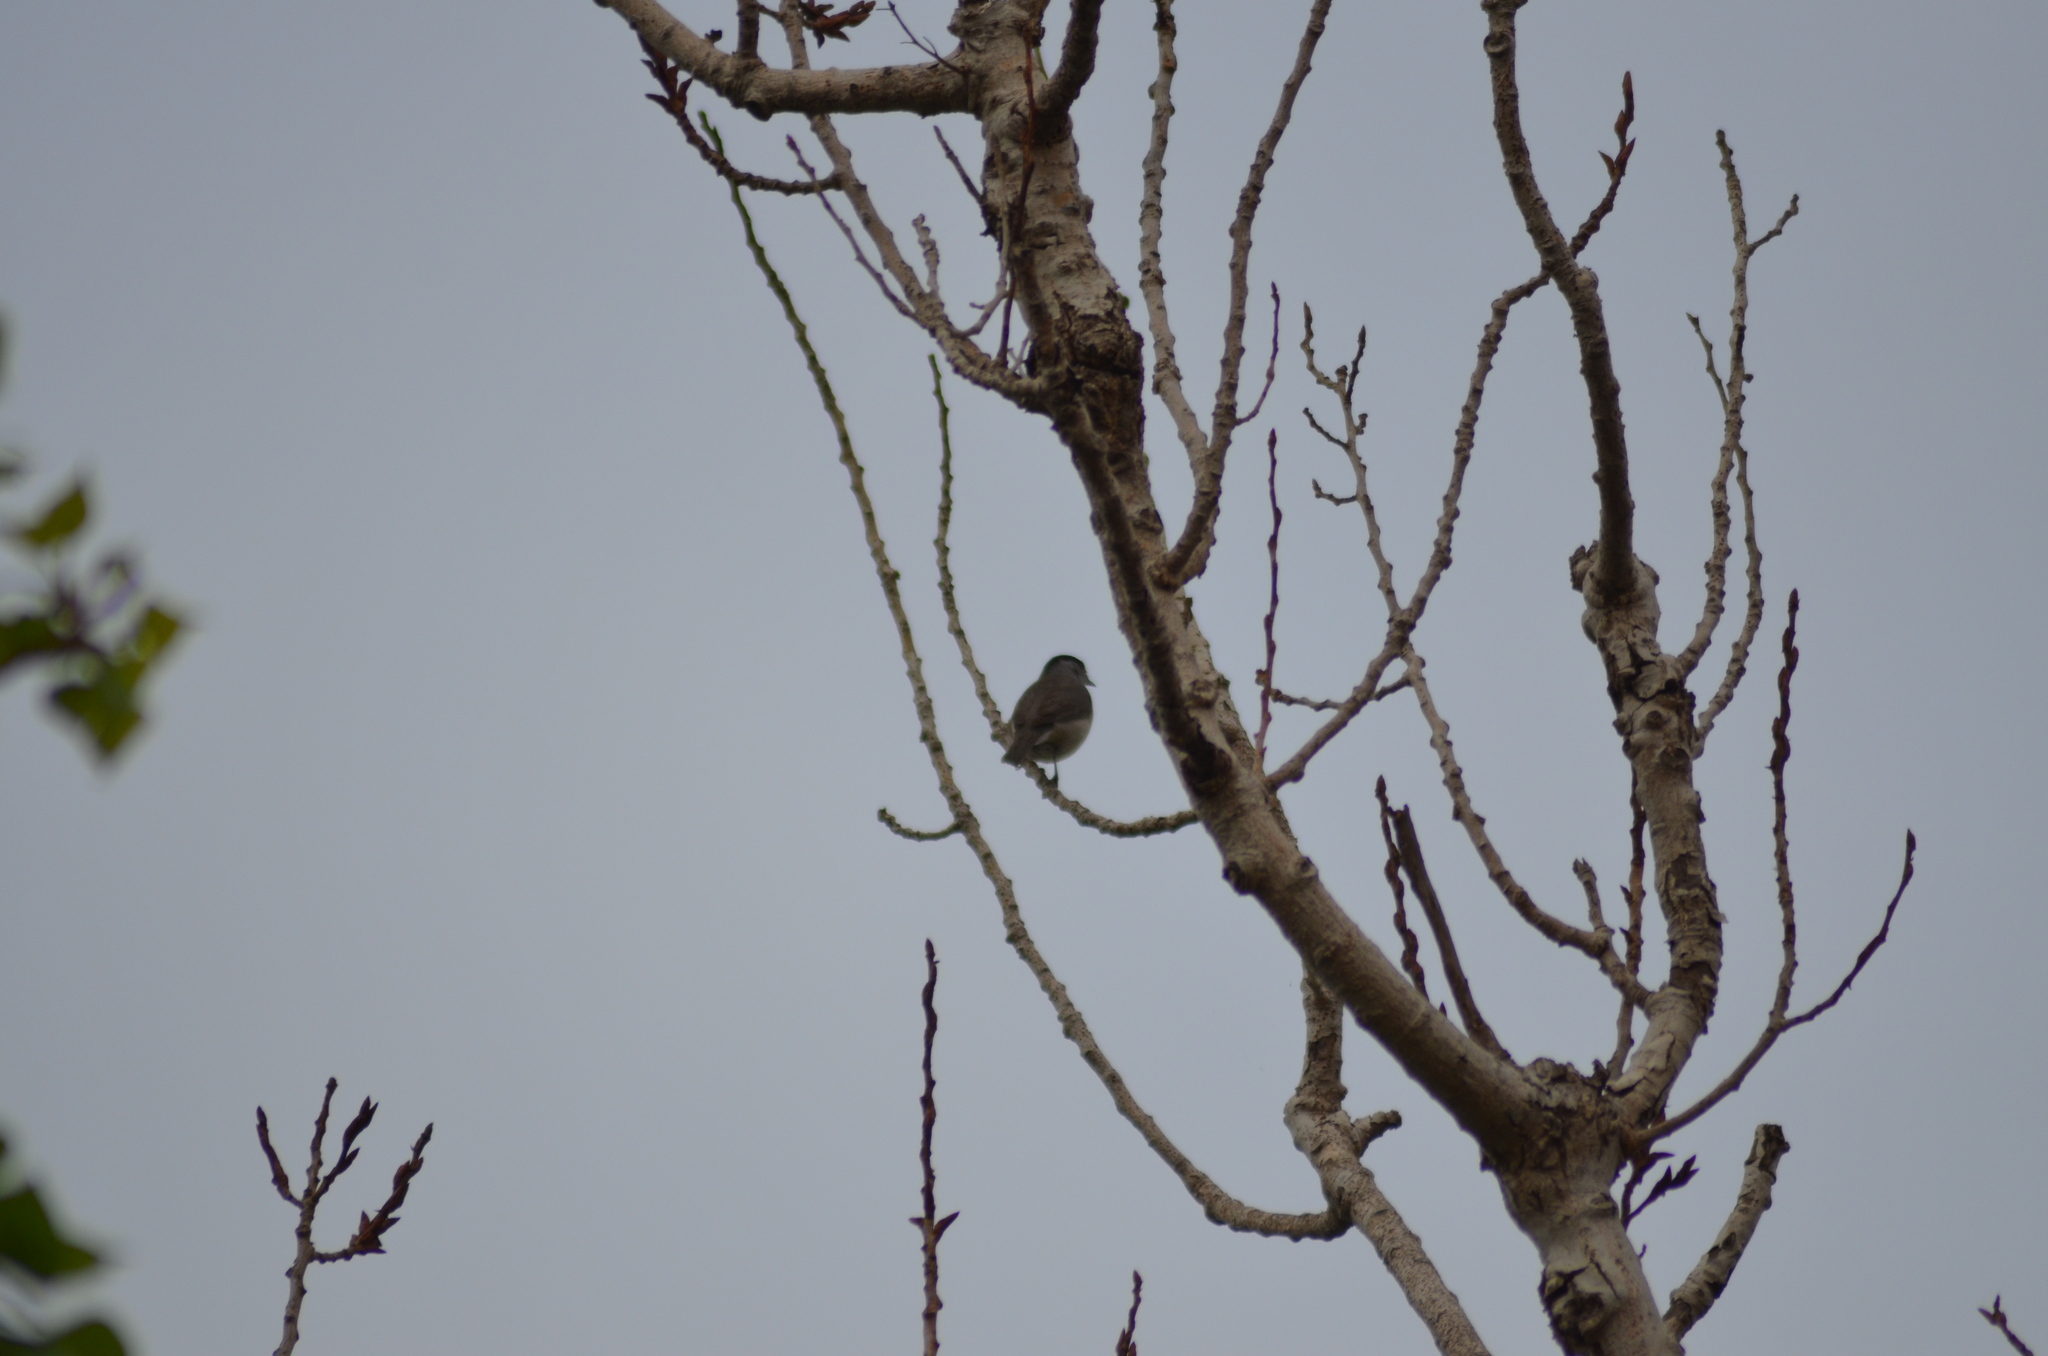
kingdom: Animalia
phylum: Chordata
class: Aves
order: Passeriformes
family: Sylviidae
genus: Sylvia
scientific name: Sylvia atricapilla
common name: Eurasian blackcap
